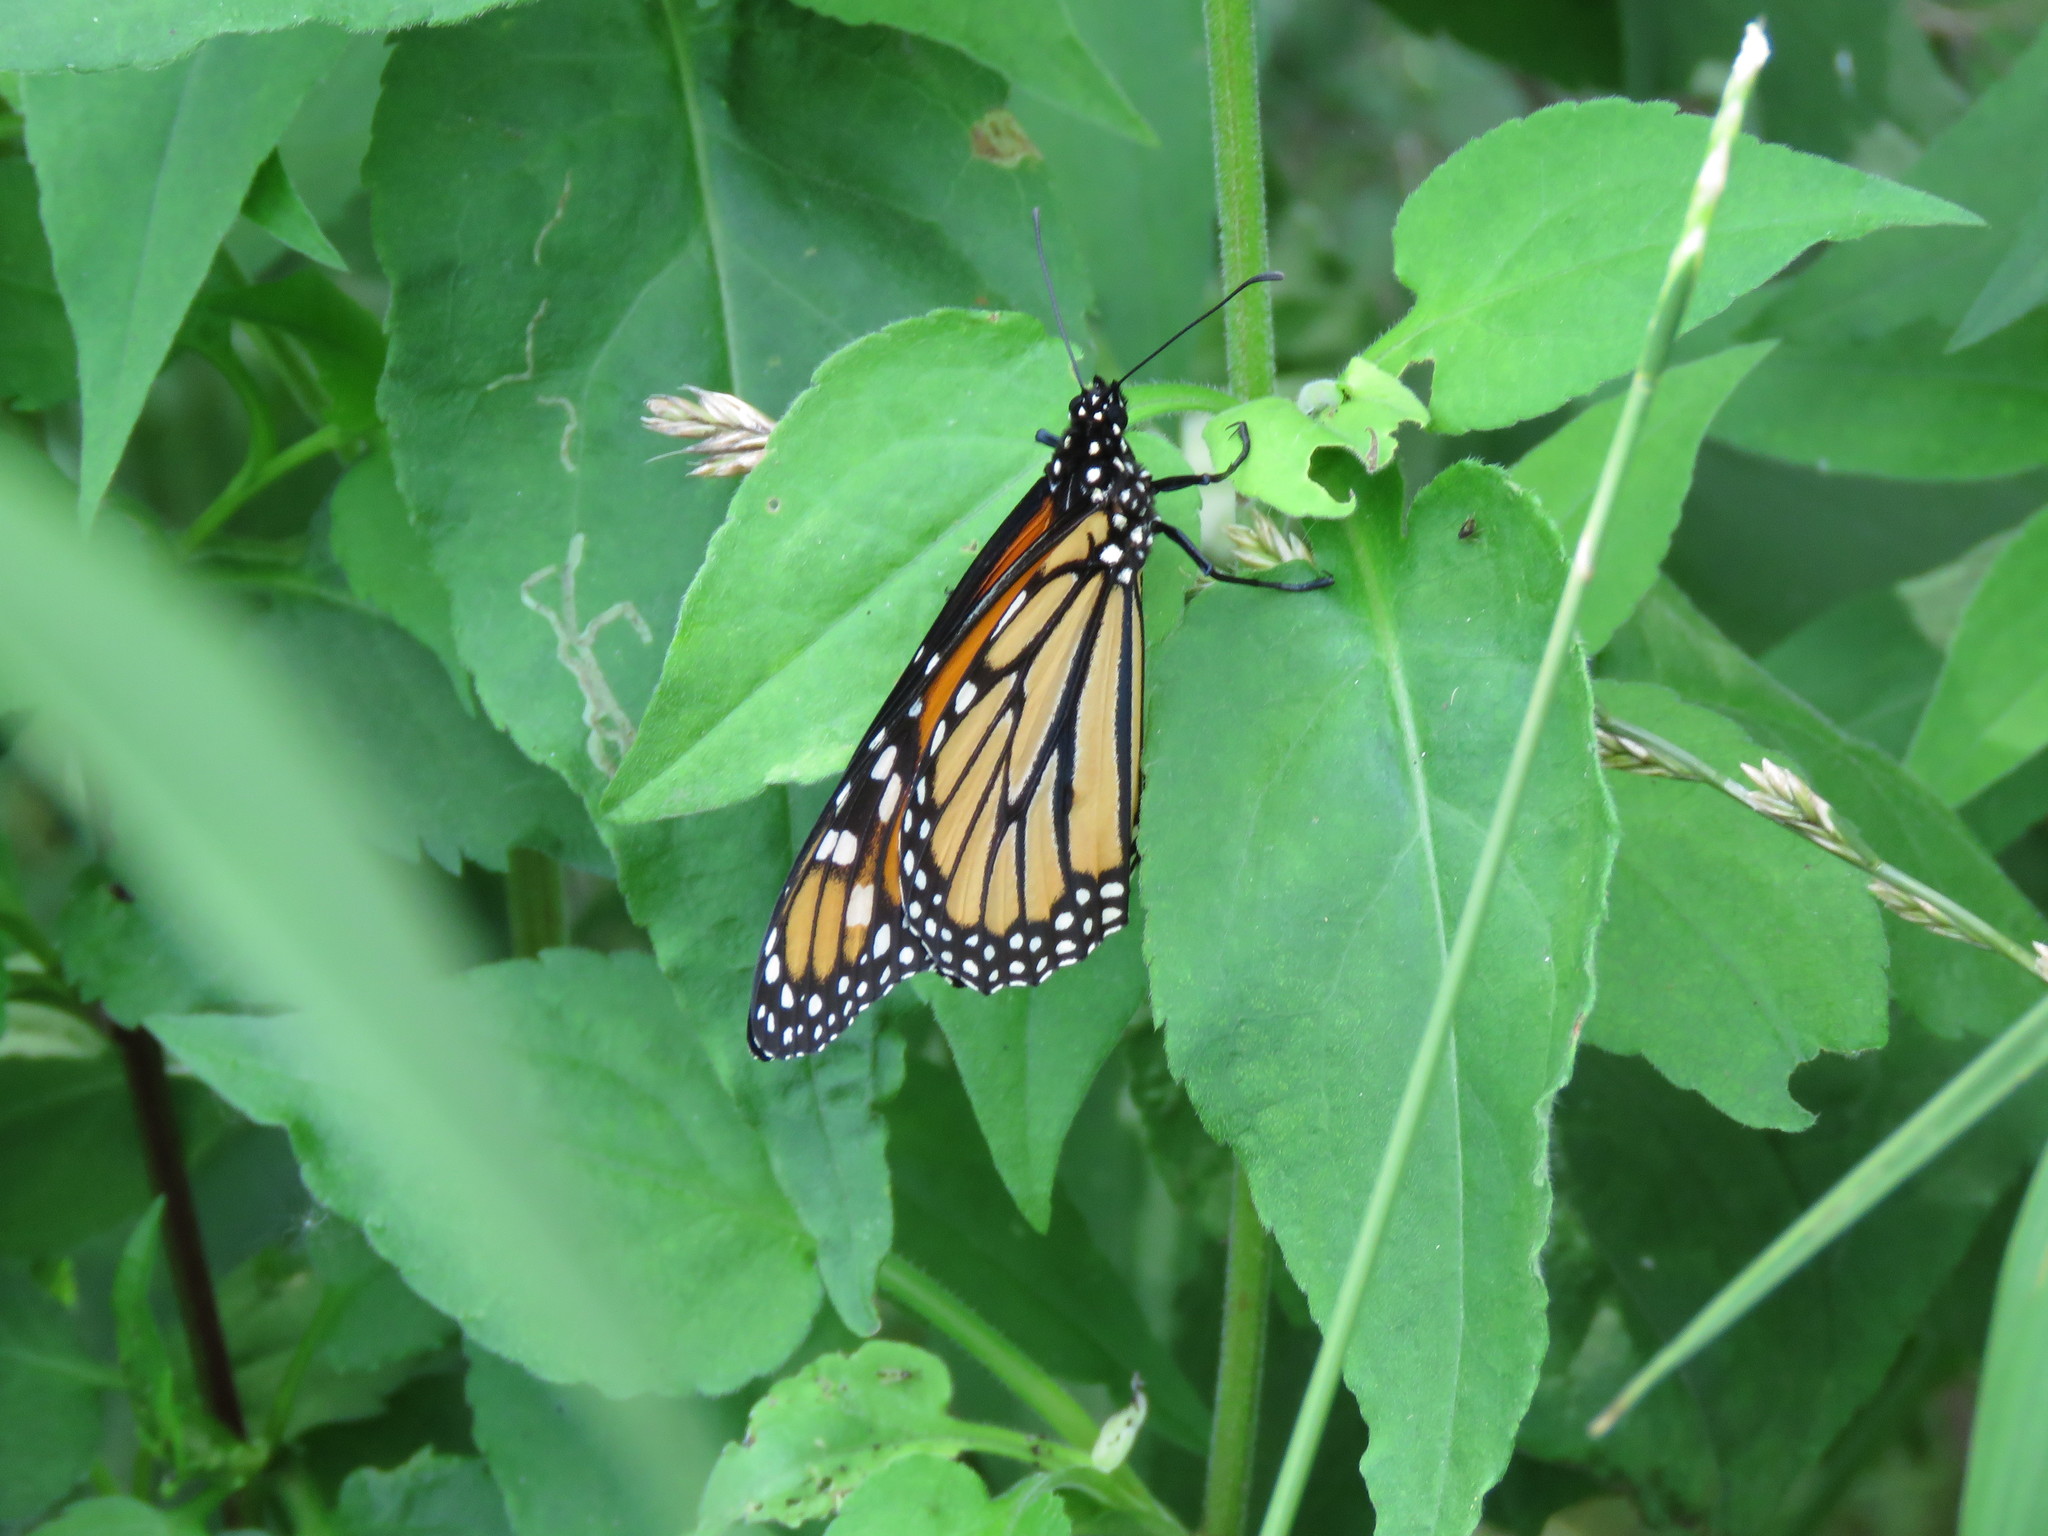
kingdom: Animalia
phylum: Arthropoda
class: Insecta
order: Lepidoptera
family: Nymphalidae
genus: Danaus
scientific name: Danaus plexippus
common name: Monarch
